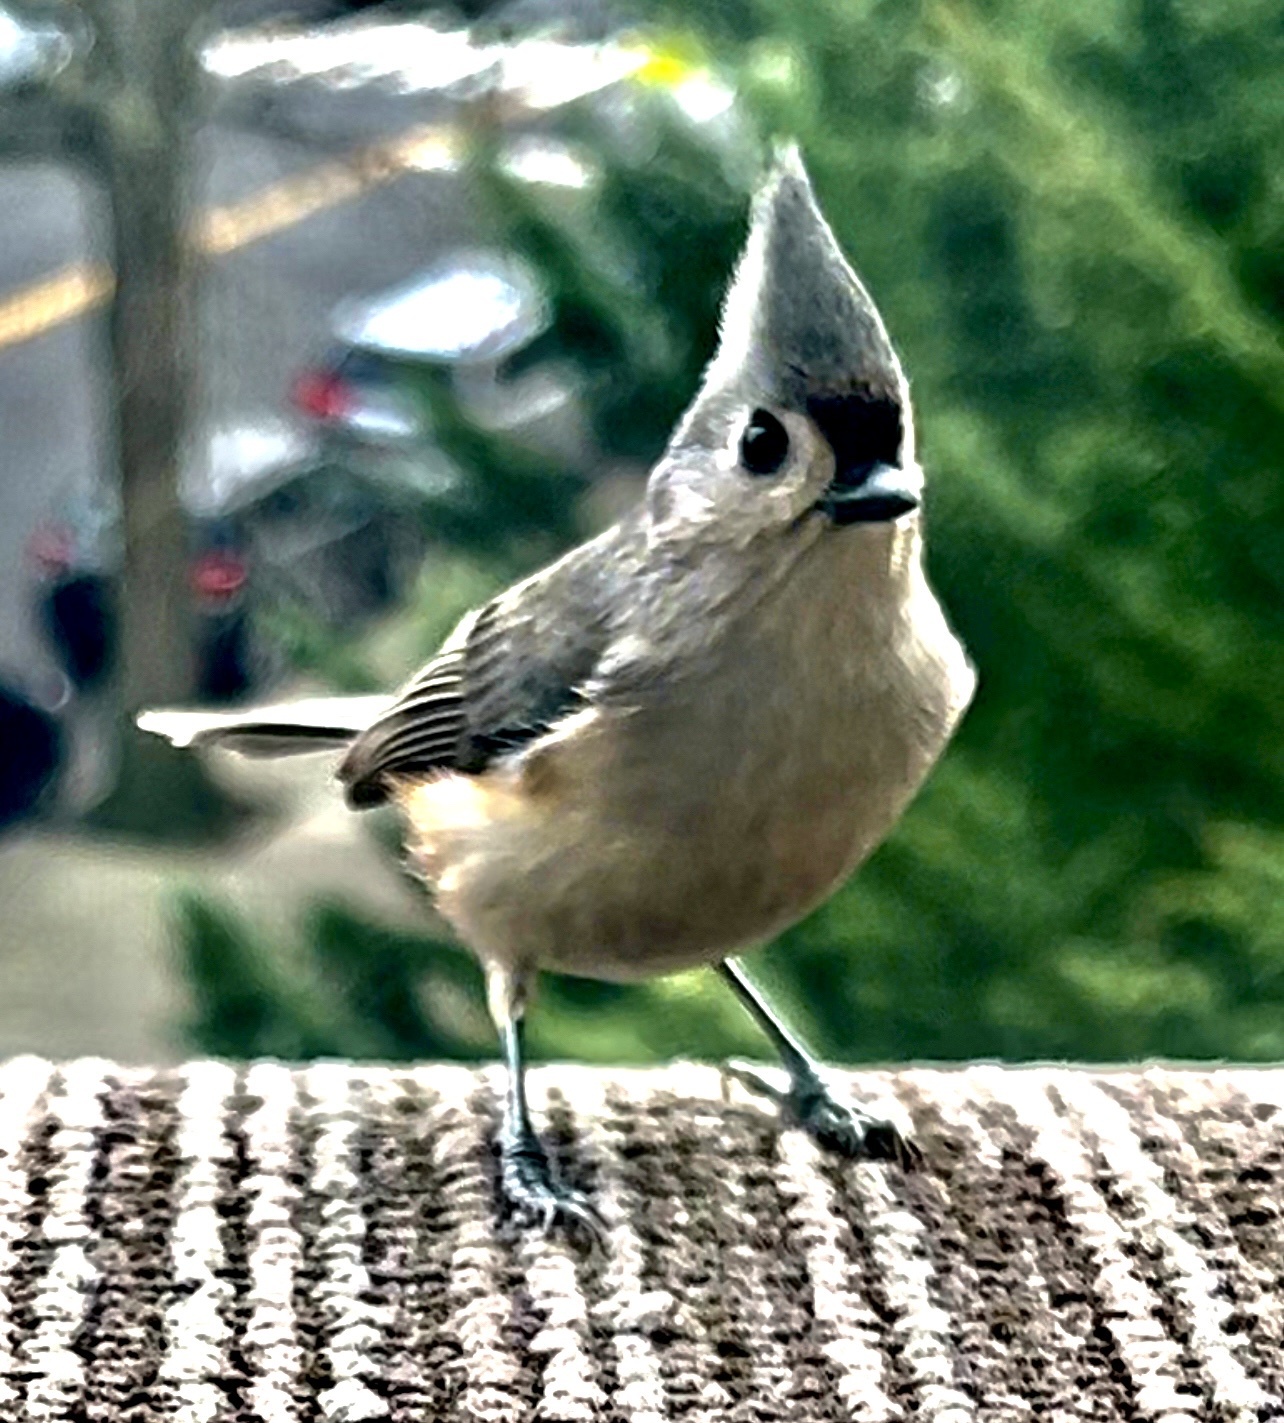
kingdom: Animalia
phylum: Chordata
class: Aves
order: Passeriformes
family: Paridae
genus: Baeolophus
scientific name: Baeolophus bicolor
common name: Tufted titmouse
